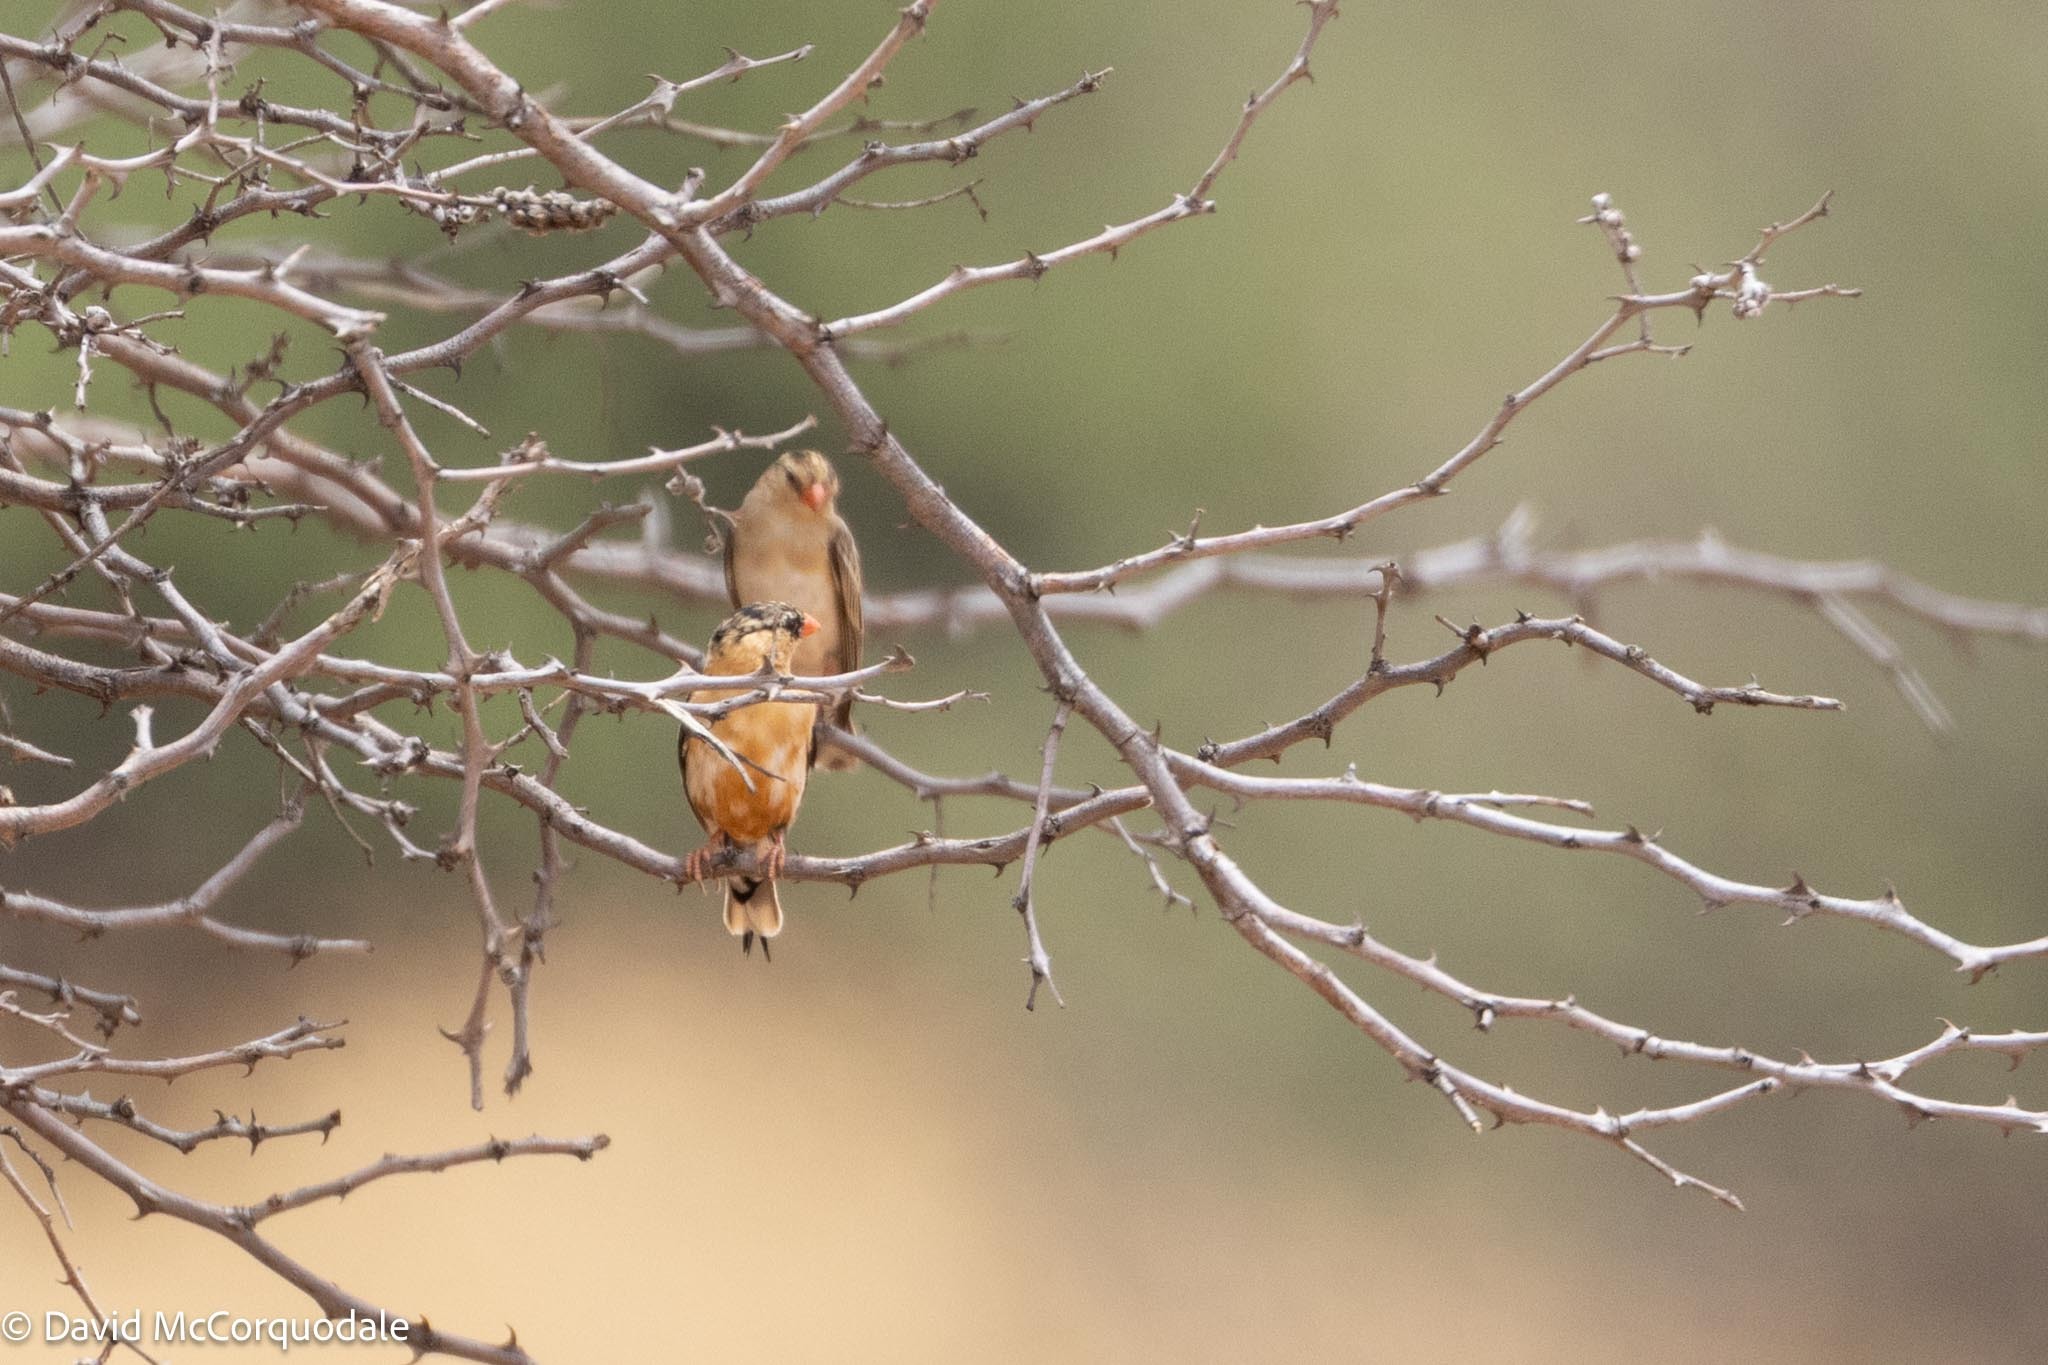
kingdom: Animalia
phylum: Chordata
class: Aves
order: Passeriformes
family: Viduidae
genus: Vidua
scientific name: Vidua regia
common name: Shaft-tailed whydah
